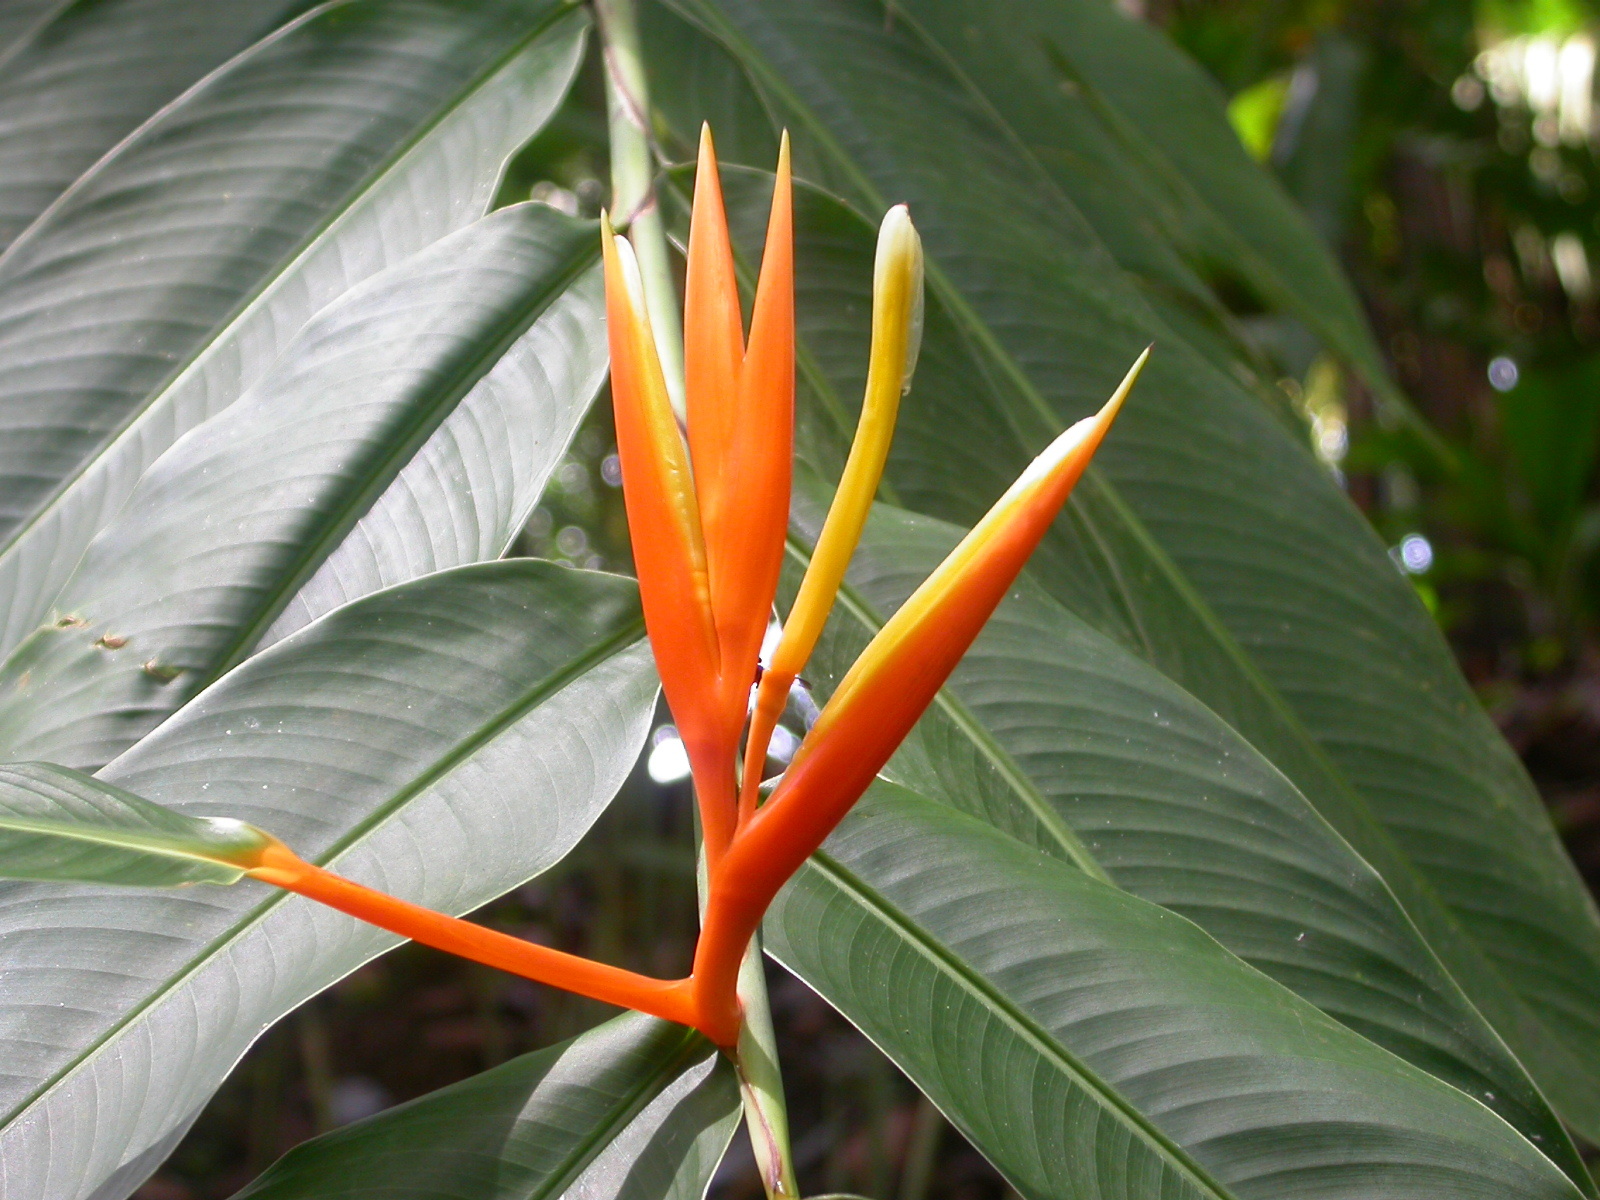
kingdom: Plantae
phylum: Tracheophyta
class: Liliopsida
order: Zingiberales
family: Heliconiaceae
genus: Heliconia
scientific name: Heliconia longiflora
